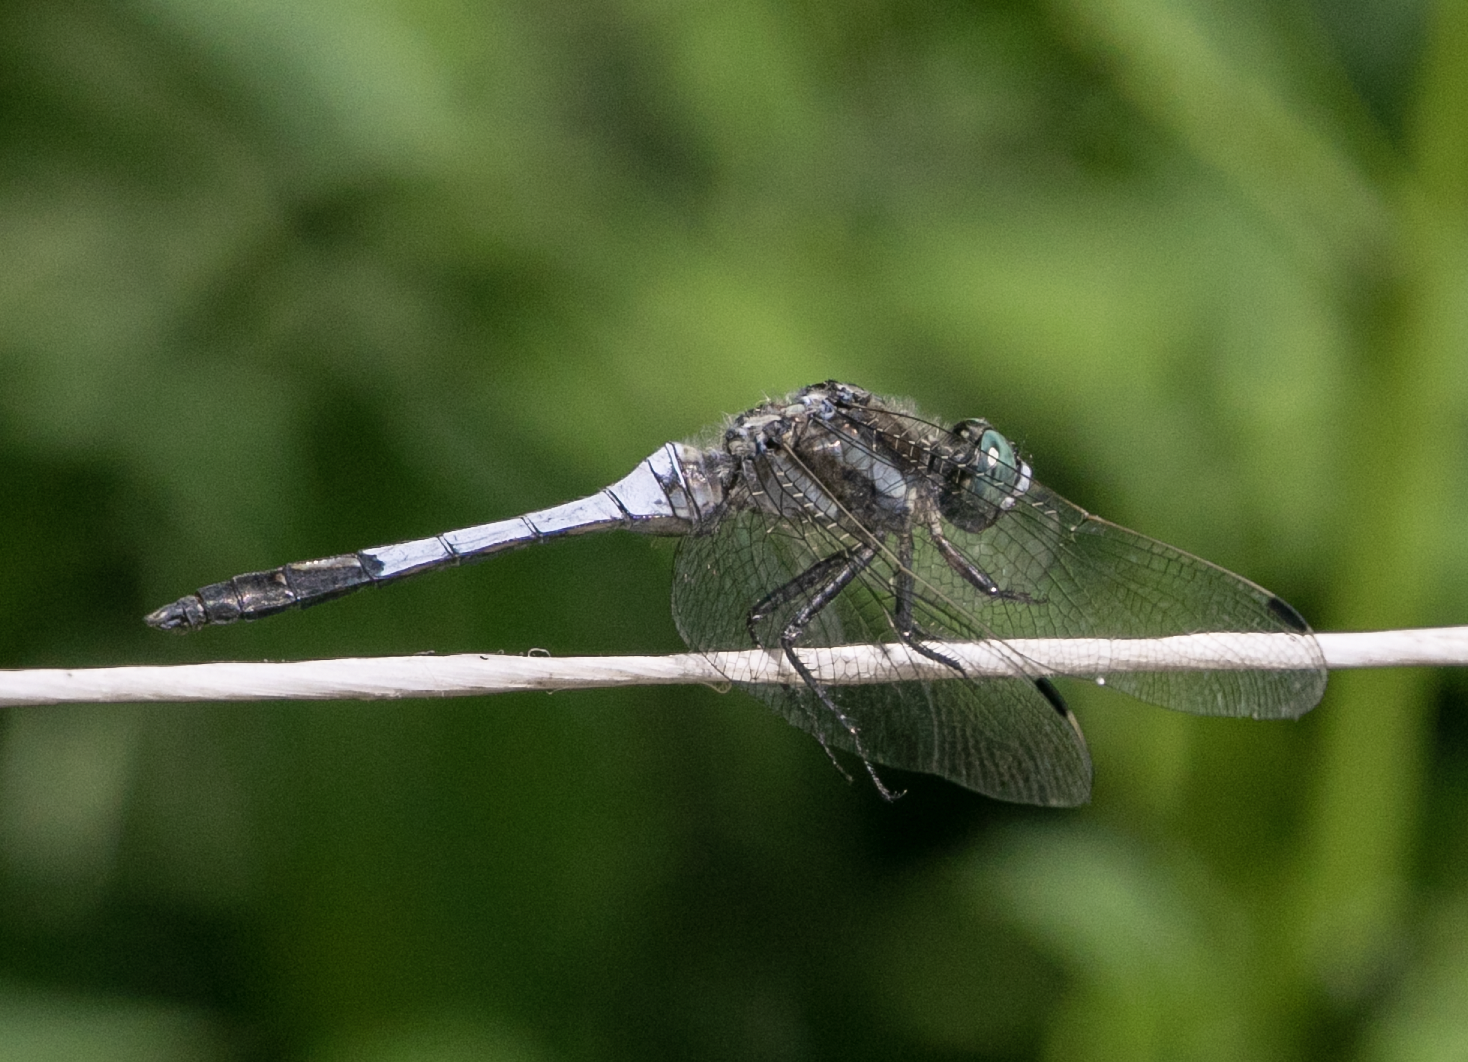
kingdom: Animalia
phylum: Arthropoda
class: Insecta
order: Odonata
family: Libellulidae
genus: Orthetrum
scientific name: Orthetrum albistylum
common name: White-tailed skimmer
